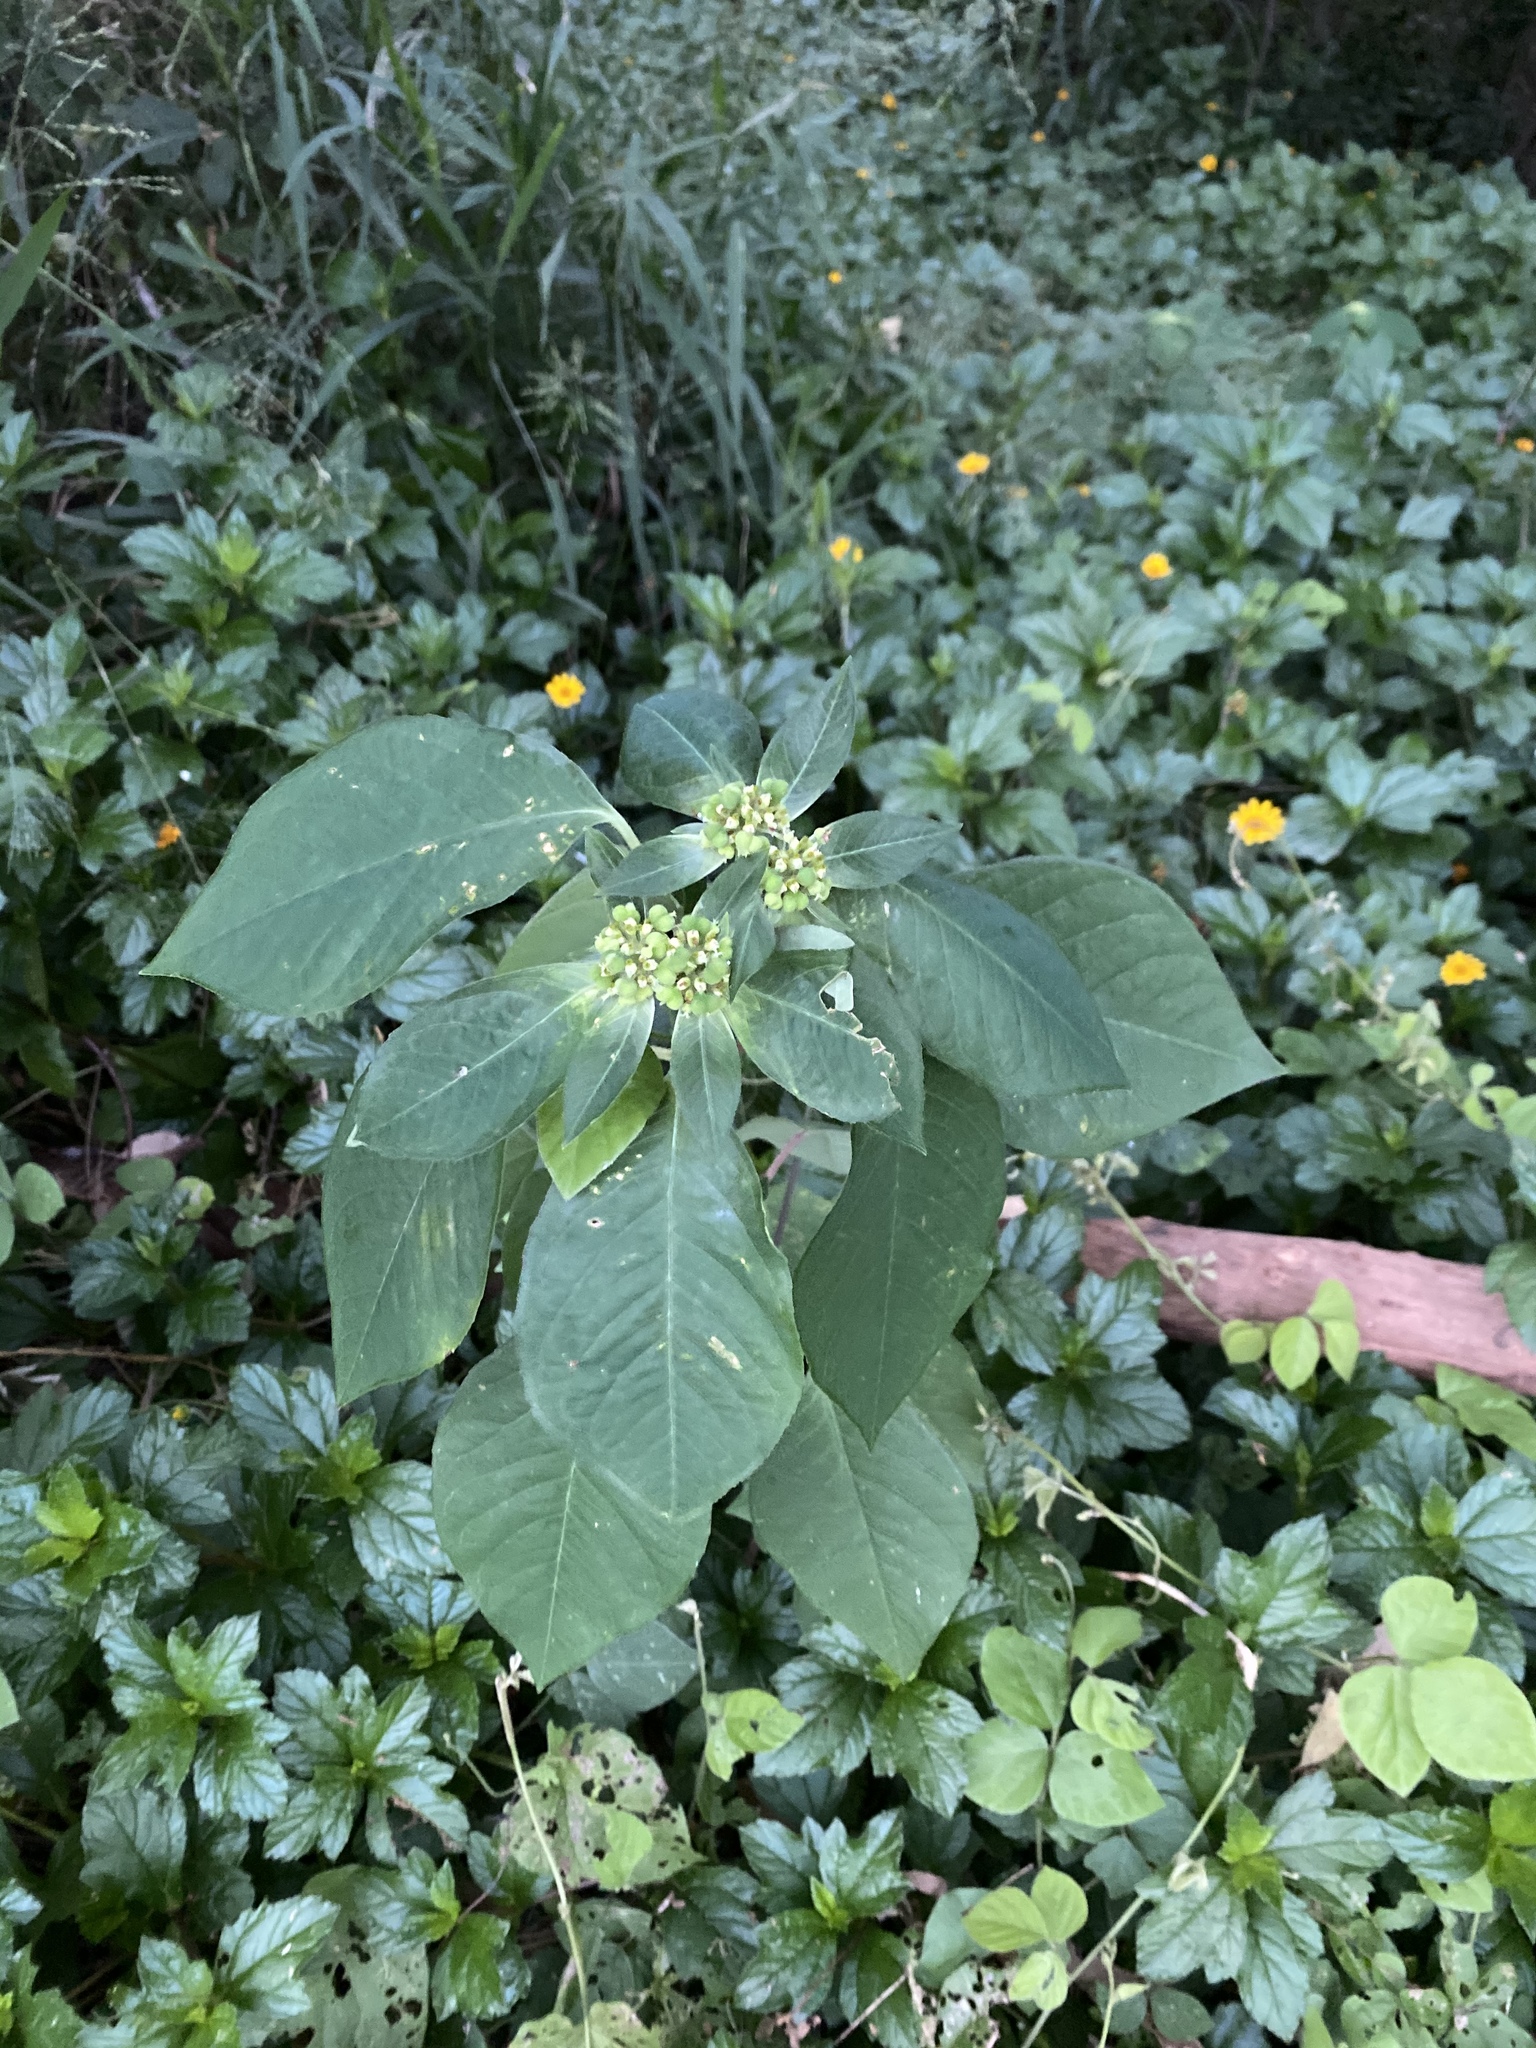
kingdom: Plantae
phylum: Tracheophyta
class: Magnoliopsida
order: Malpighiales
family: Euphorbiaceae
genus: Euphorbia
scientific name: Euphorbia heterophylla
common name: Mexican fireplant
